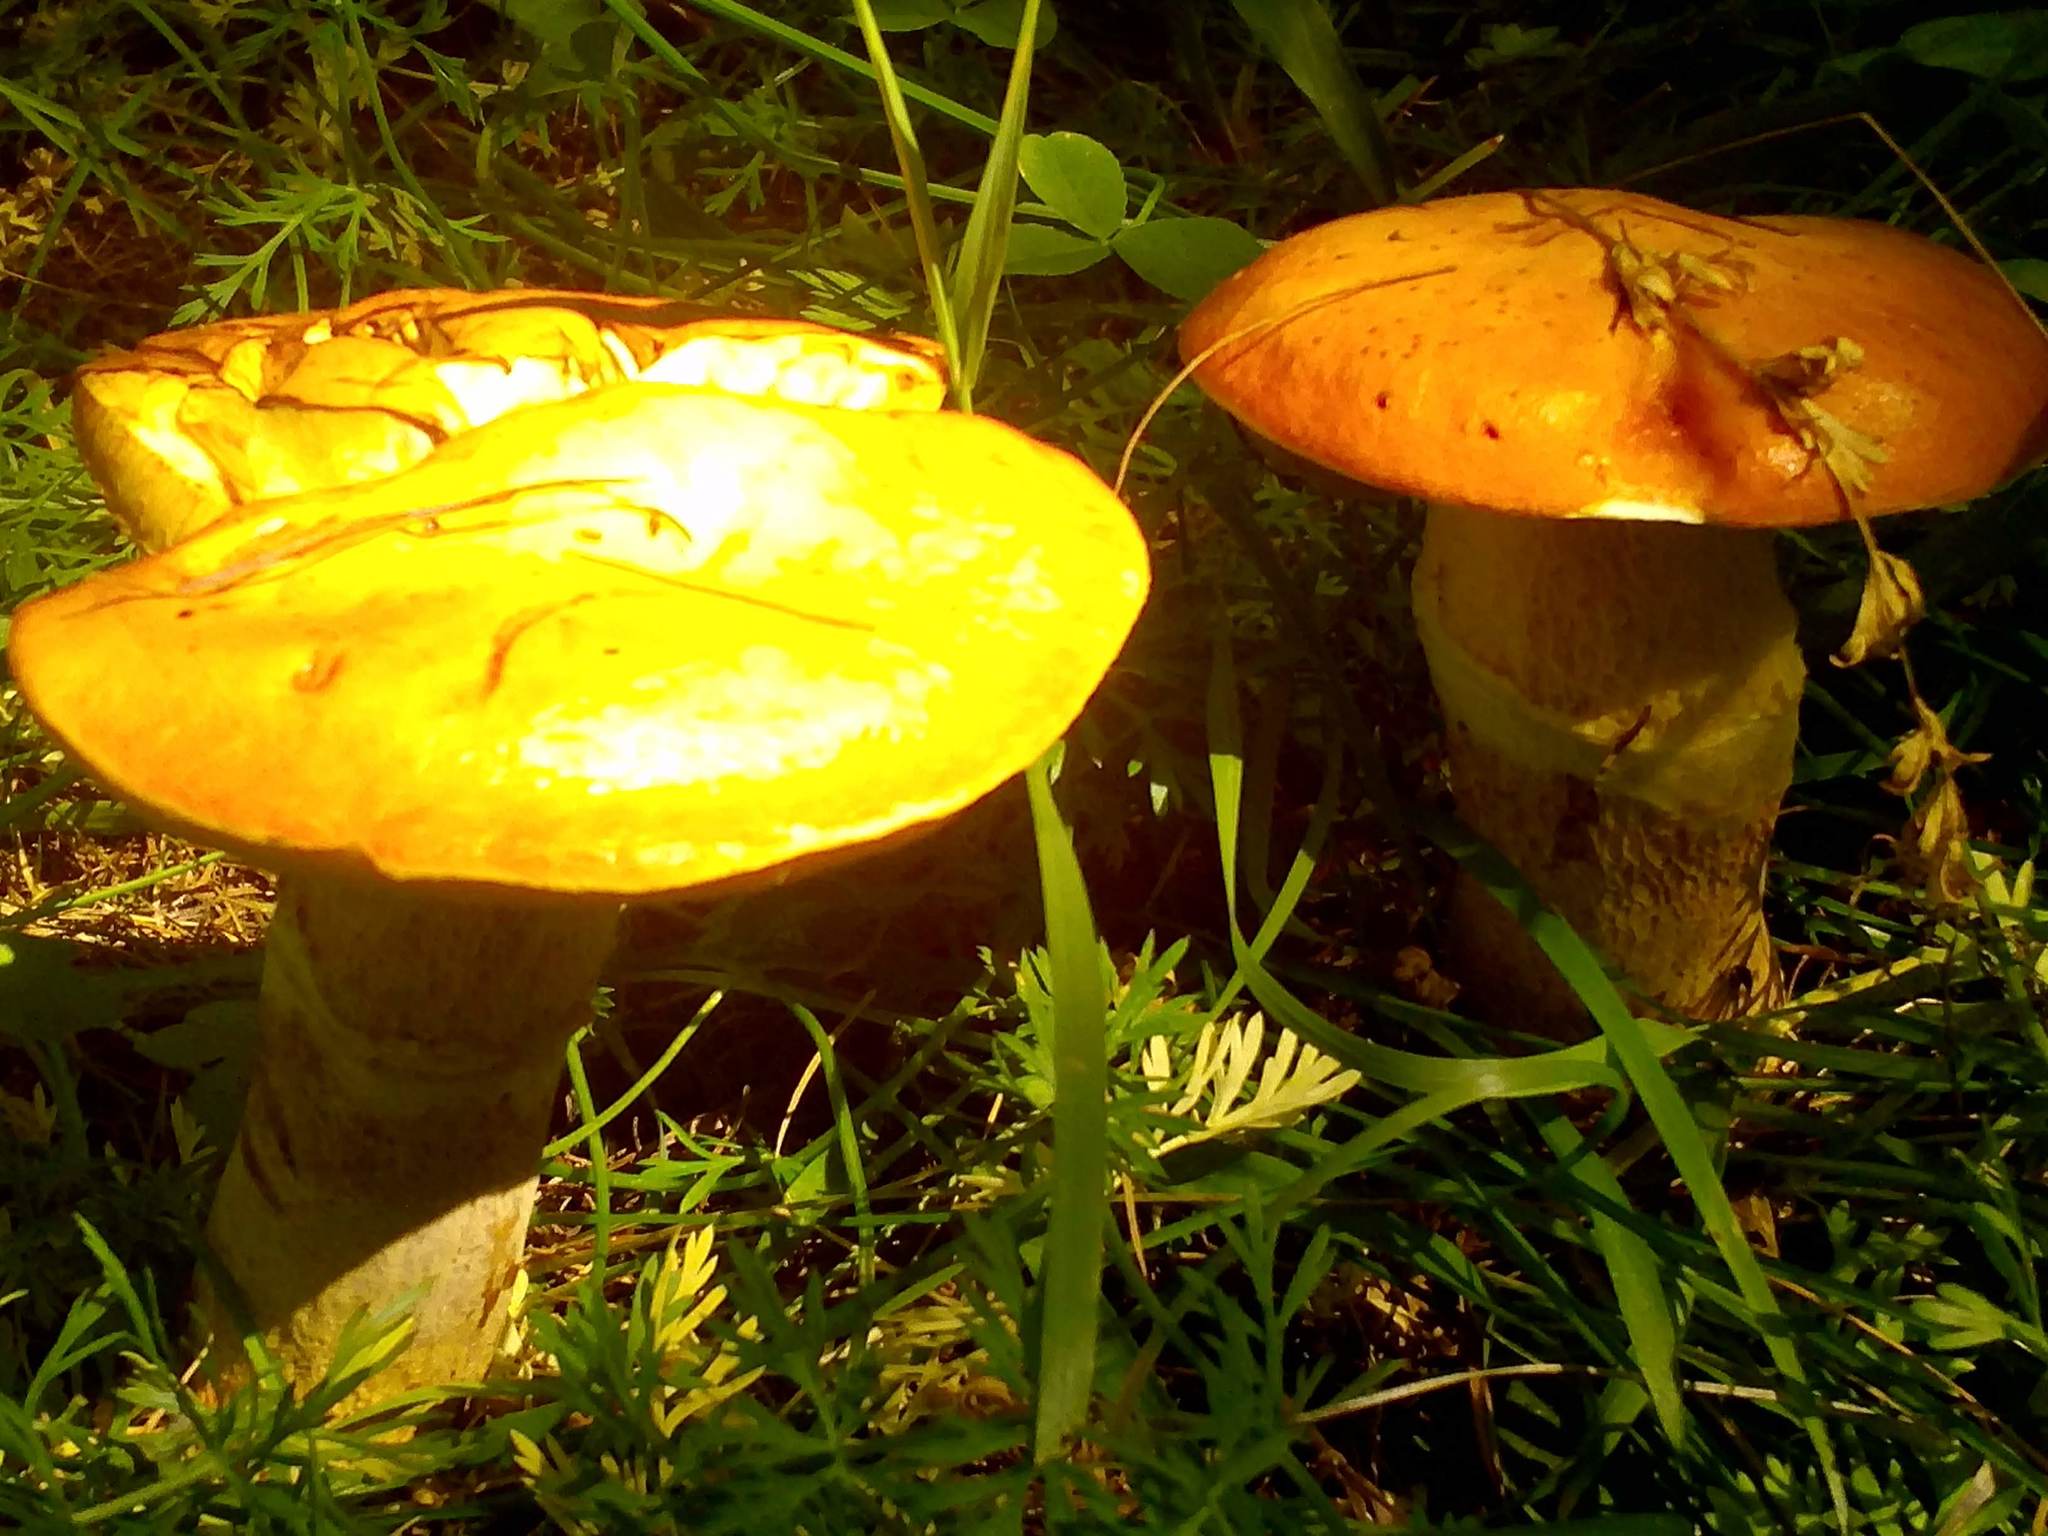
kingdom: Fungi
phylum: Basidiomycota
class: Agaricomycetes
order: Boletales
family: Suillaceae
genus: Suillus
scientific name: Suillus grevillei
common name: Larch bolete
